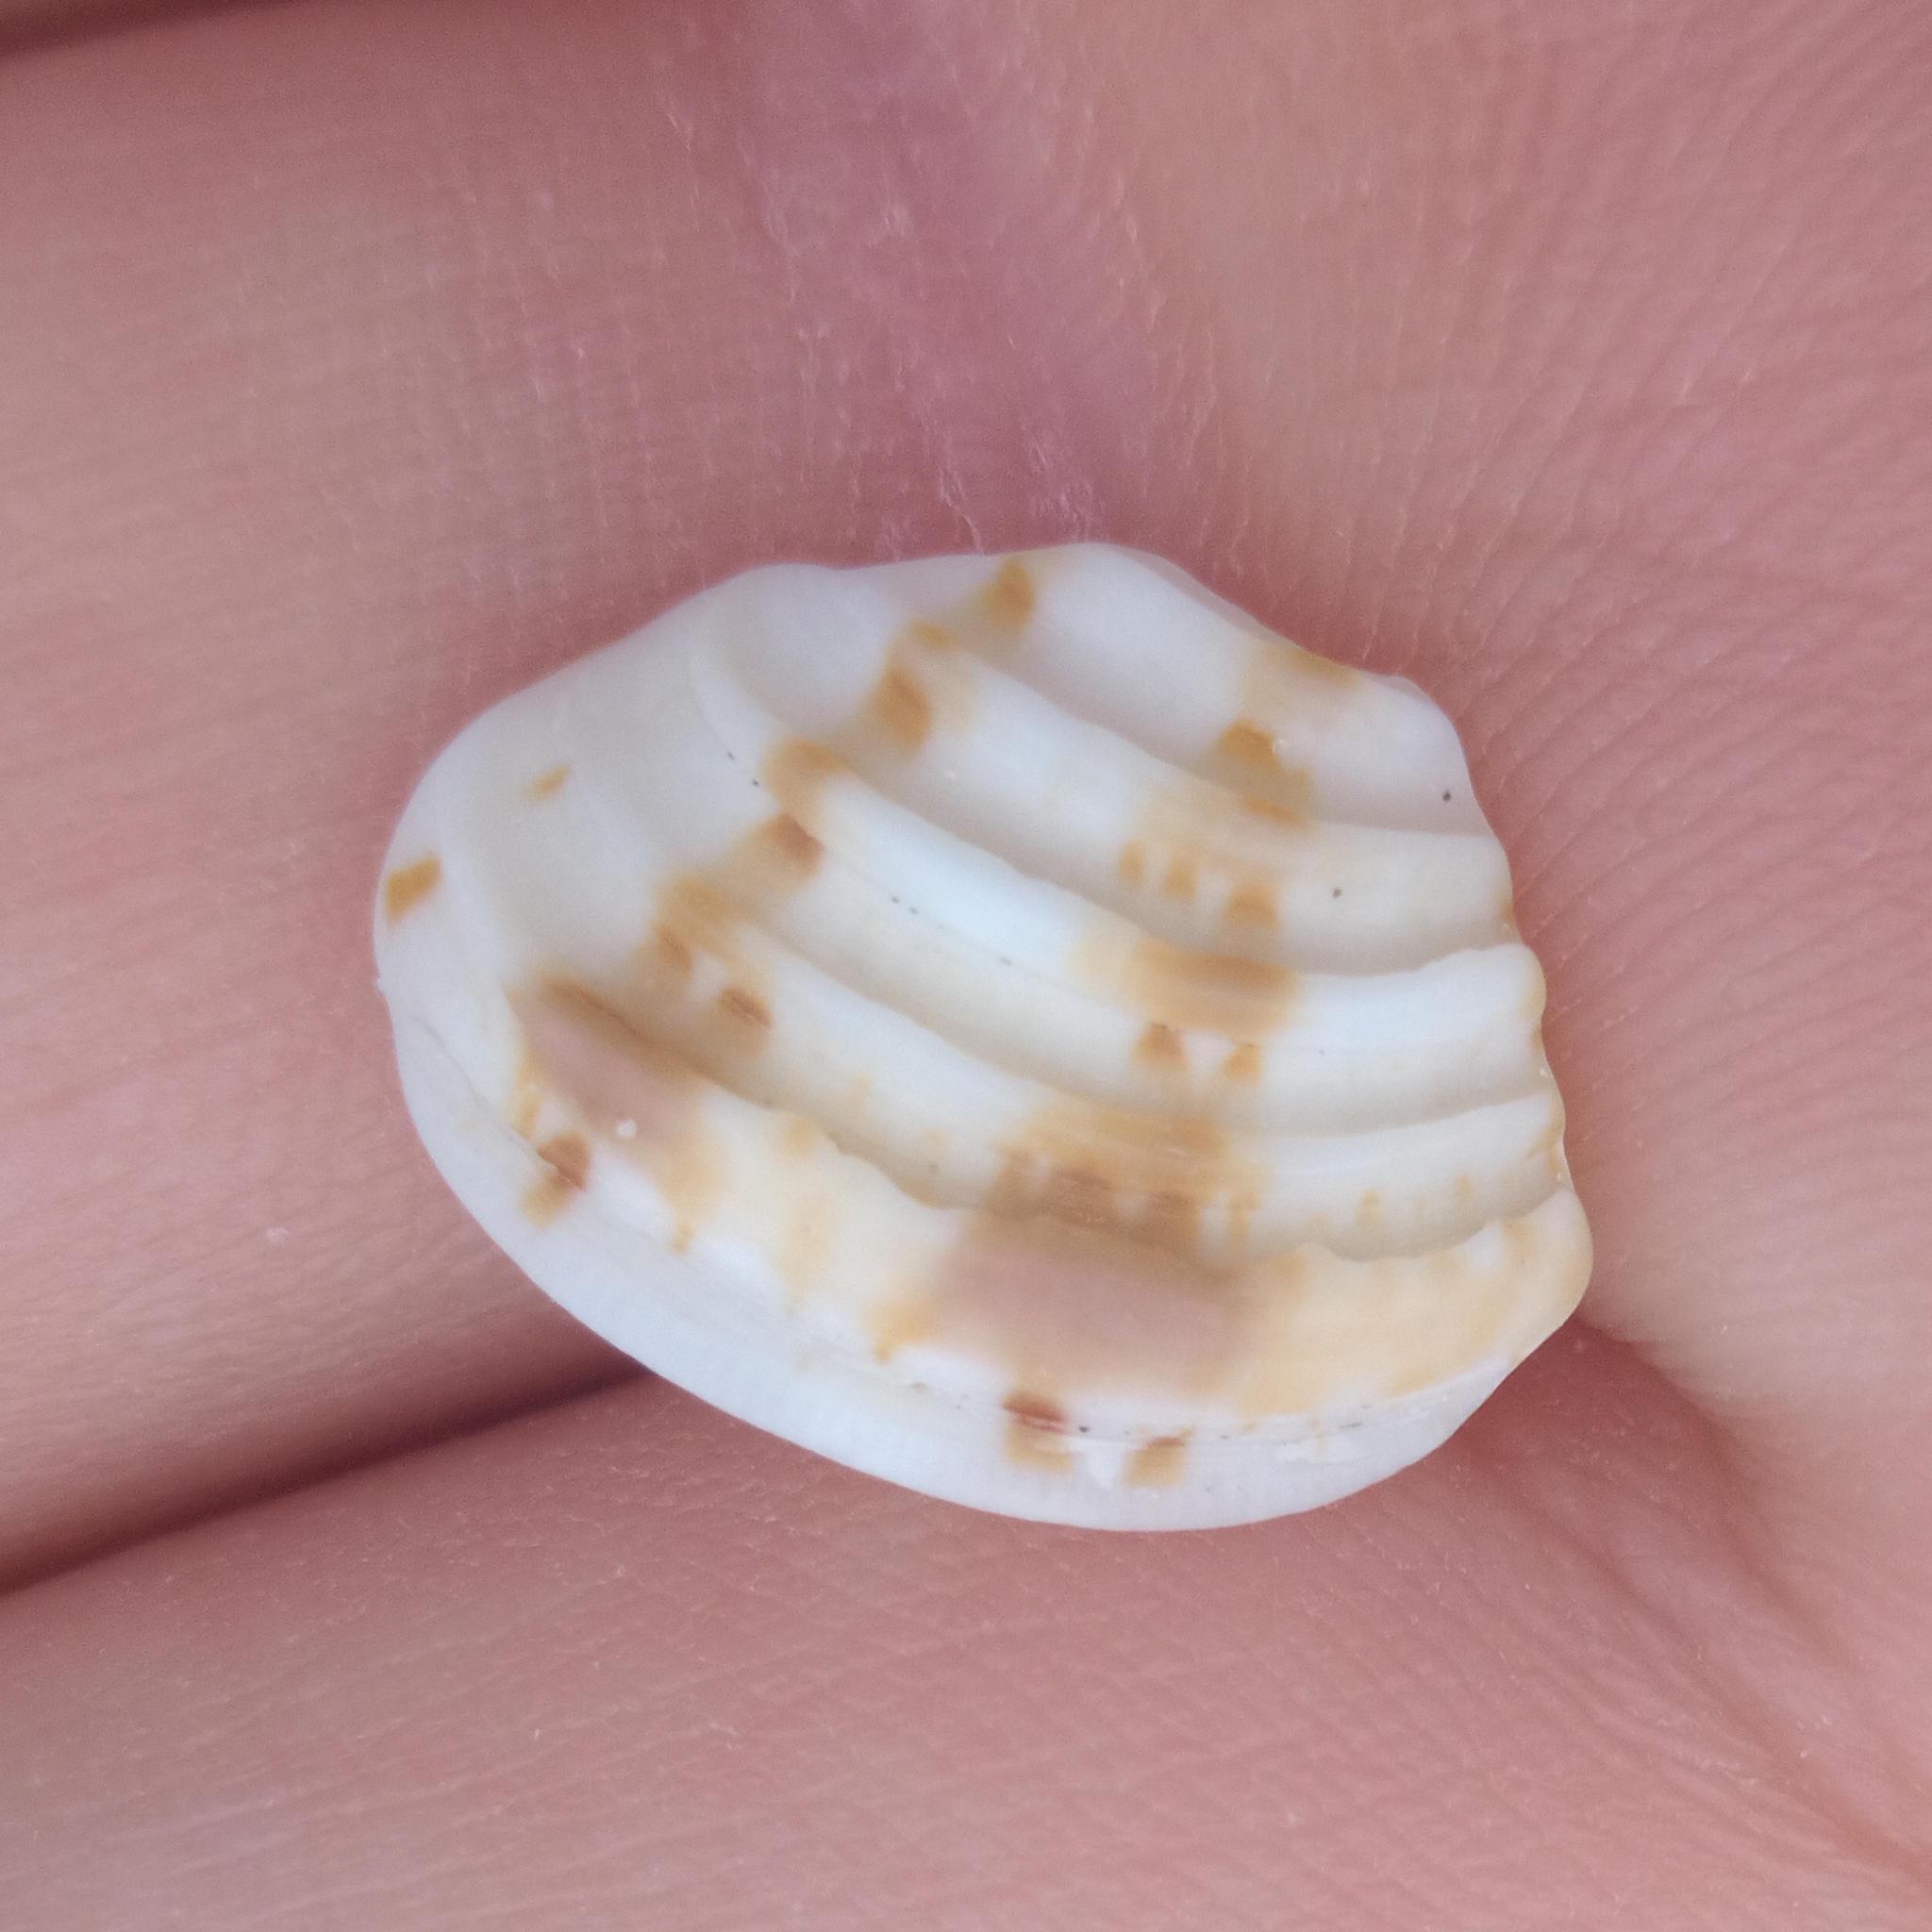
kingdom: Animalia
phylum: Mollusca
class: Bivalvia
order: Venerida
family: Veneridae
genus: Lirophora
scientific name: Lirophora paphia
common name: King venus
